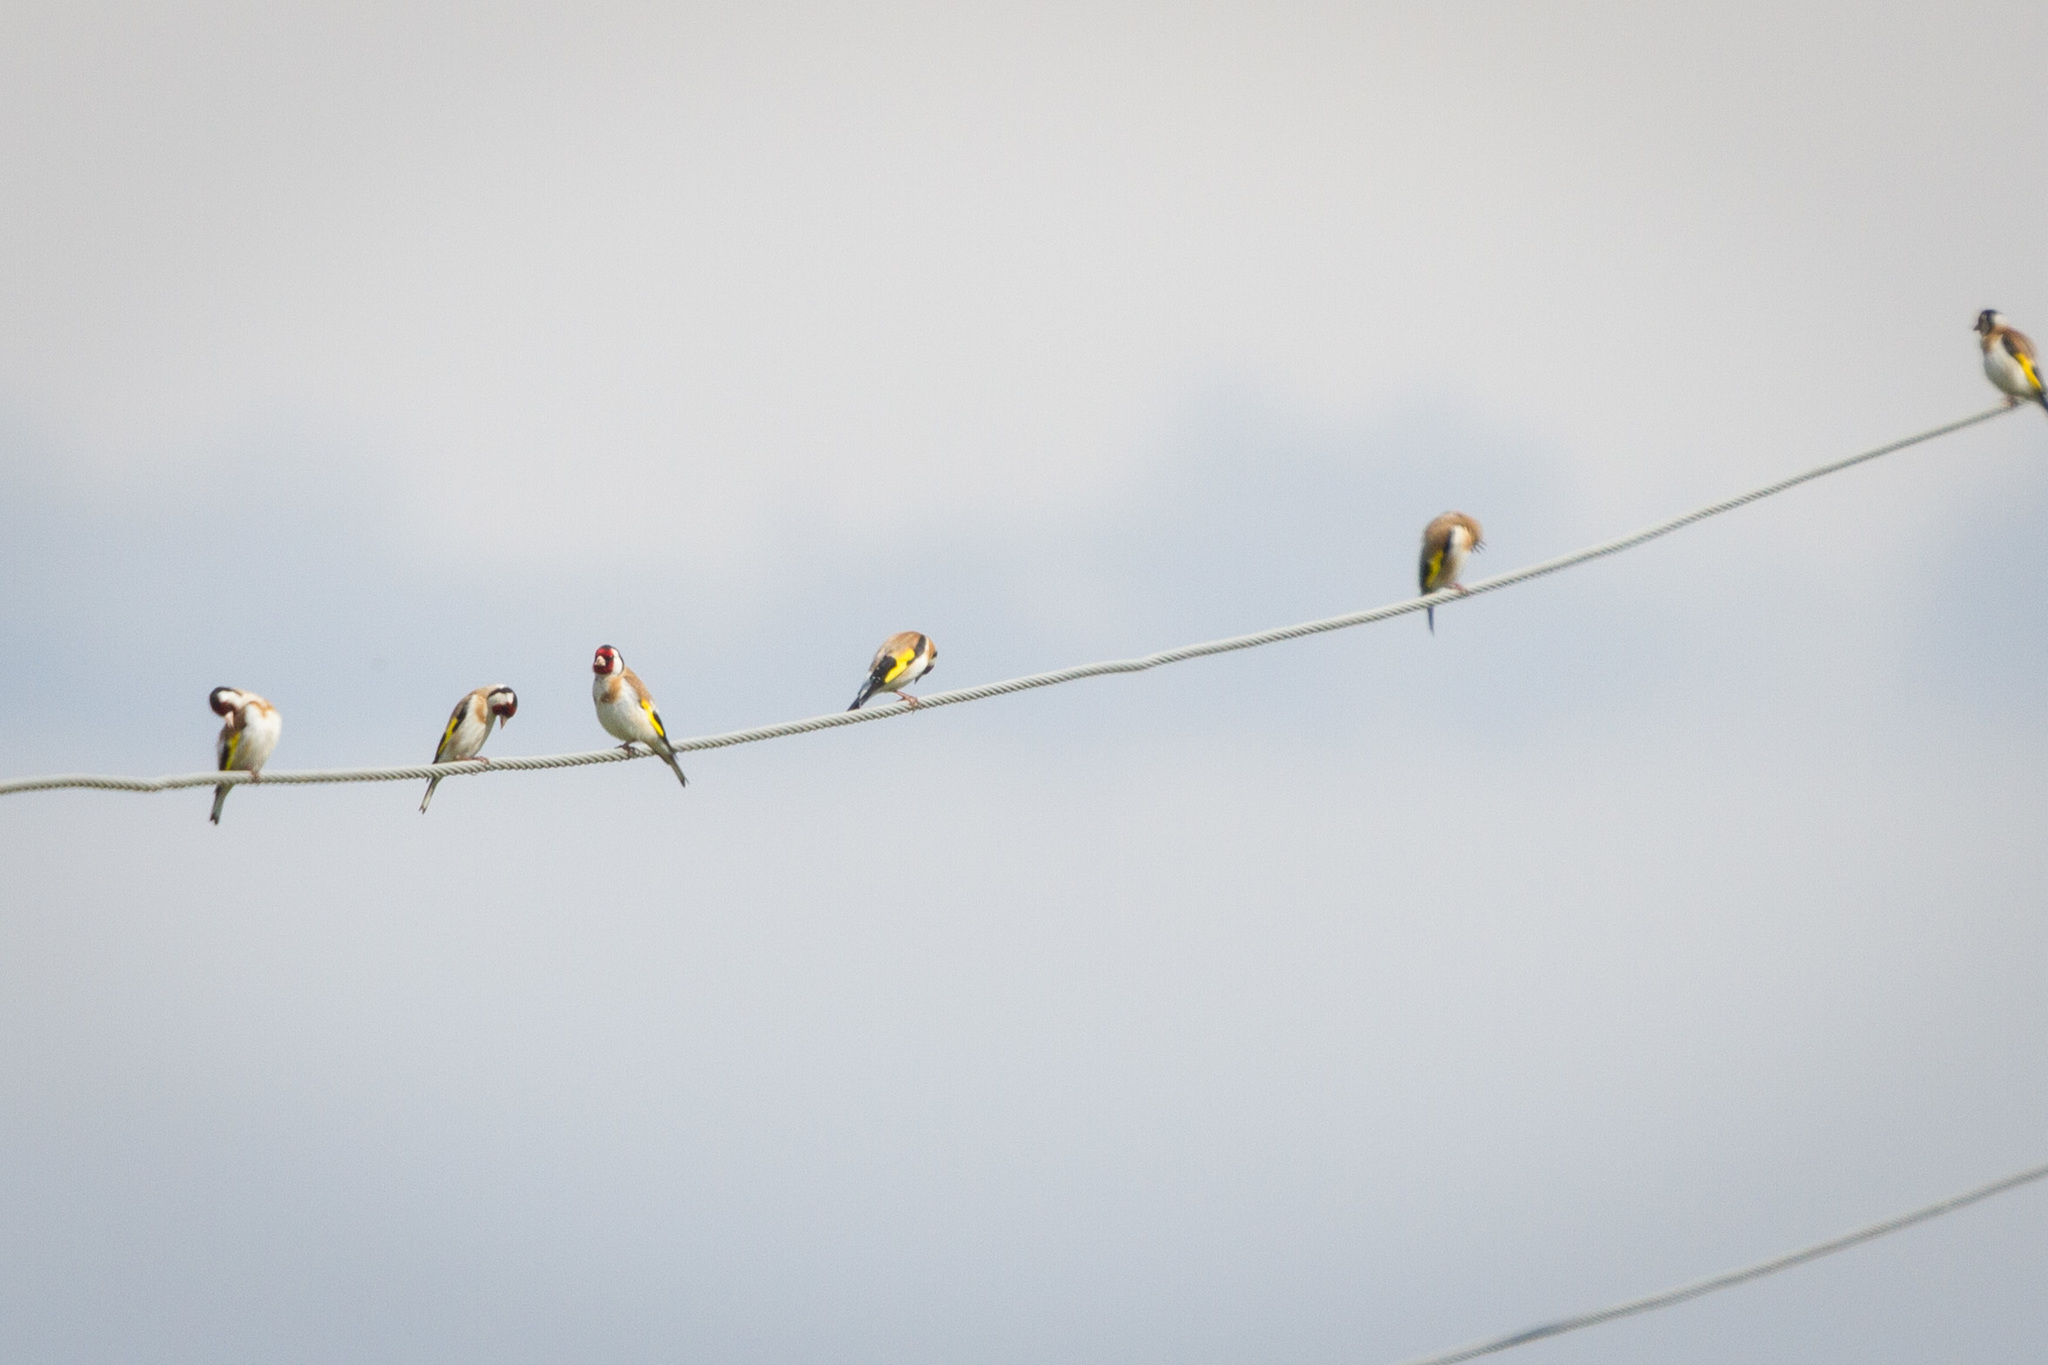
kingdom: Animalia
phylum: Chordata
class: Aves
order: Passeriformes
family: Fringillidae
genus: Carduelis
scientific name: Carduelis carduelis
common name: European goldfinch
